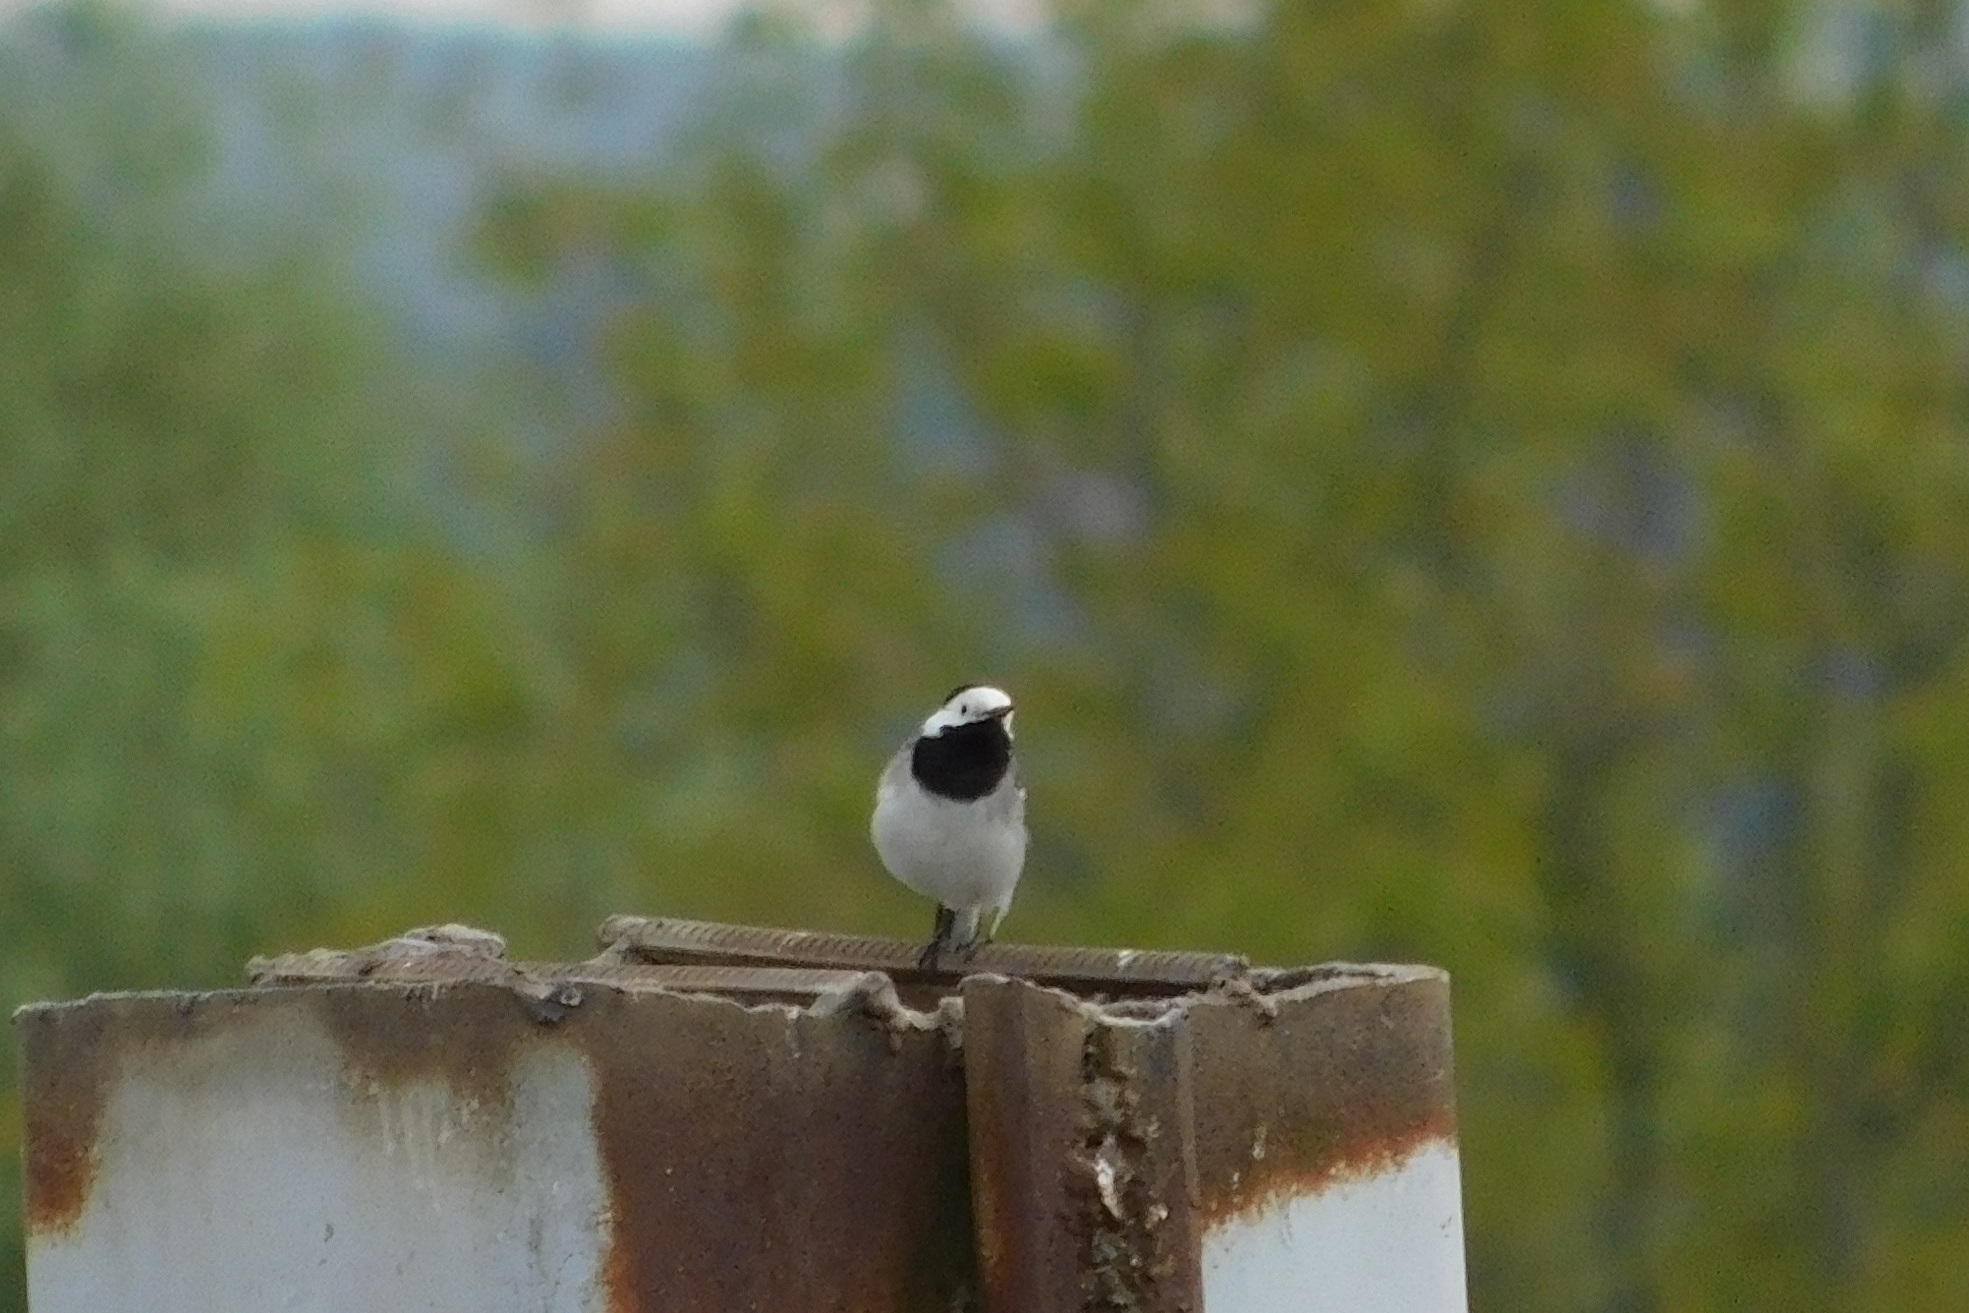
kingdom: Animalia
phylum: Chordata
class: Aves
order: Passeriformes
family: Motacillidae
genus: Motacilla
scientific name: Motacilla alba
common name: White wagtail
